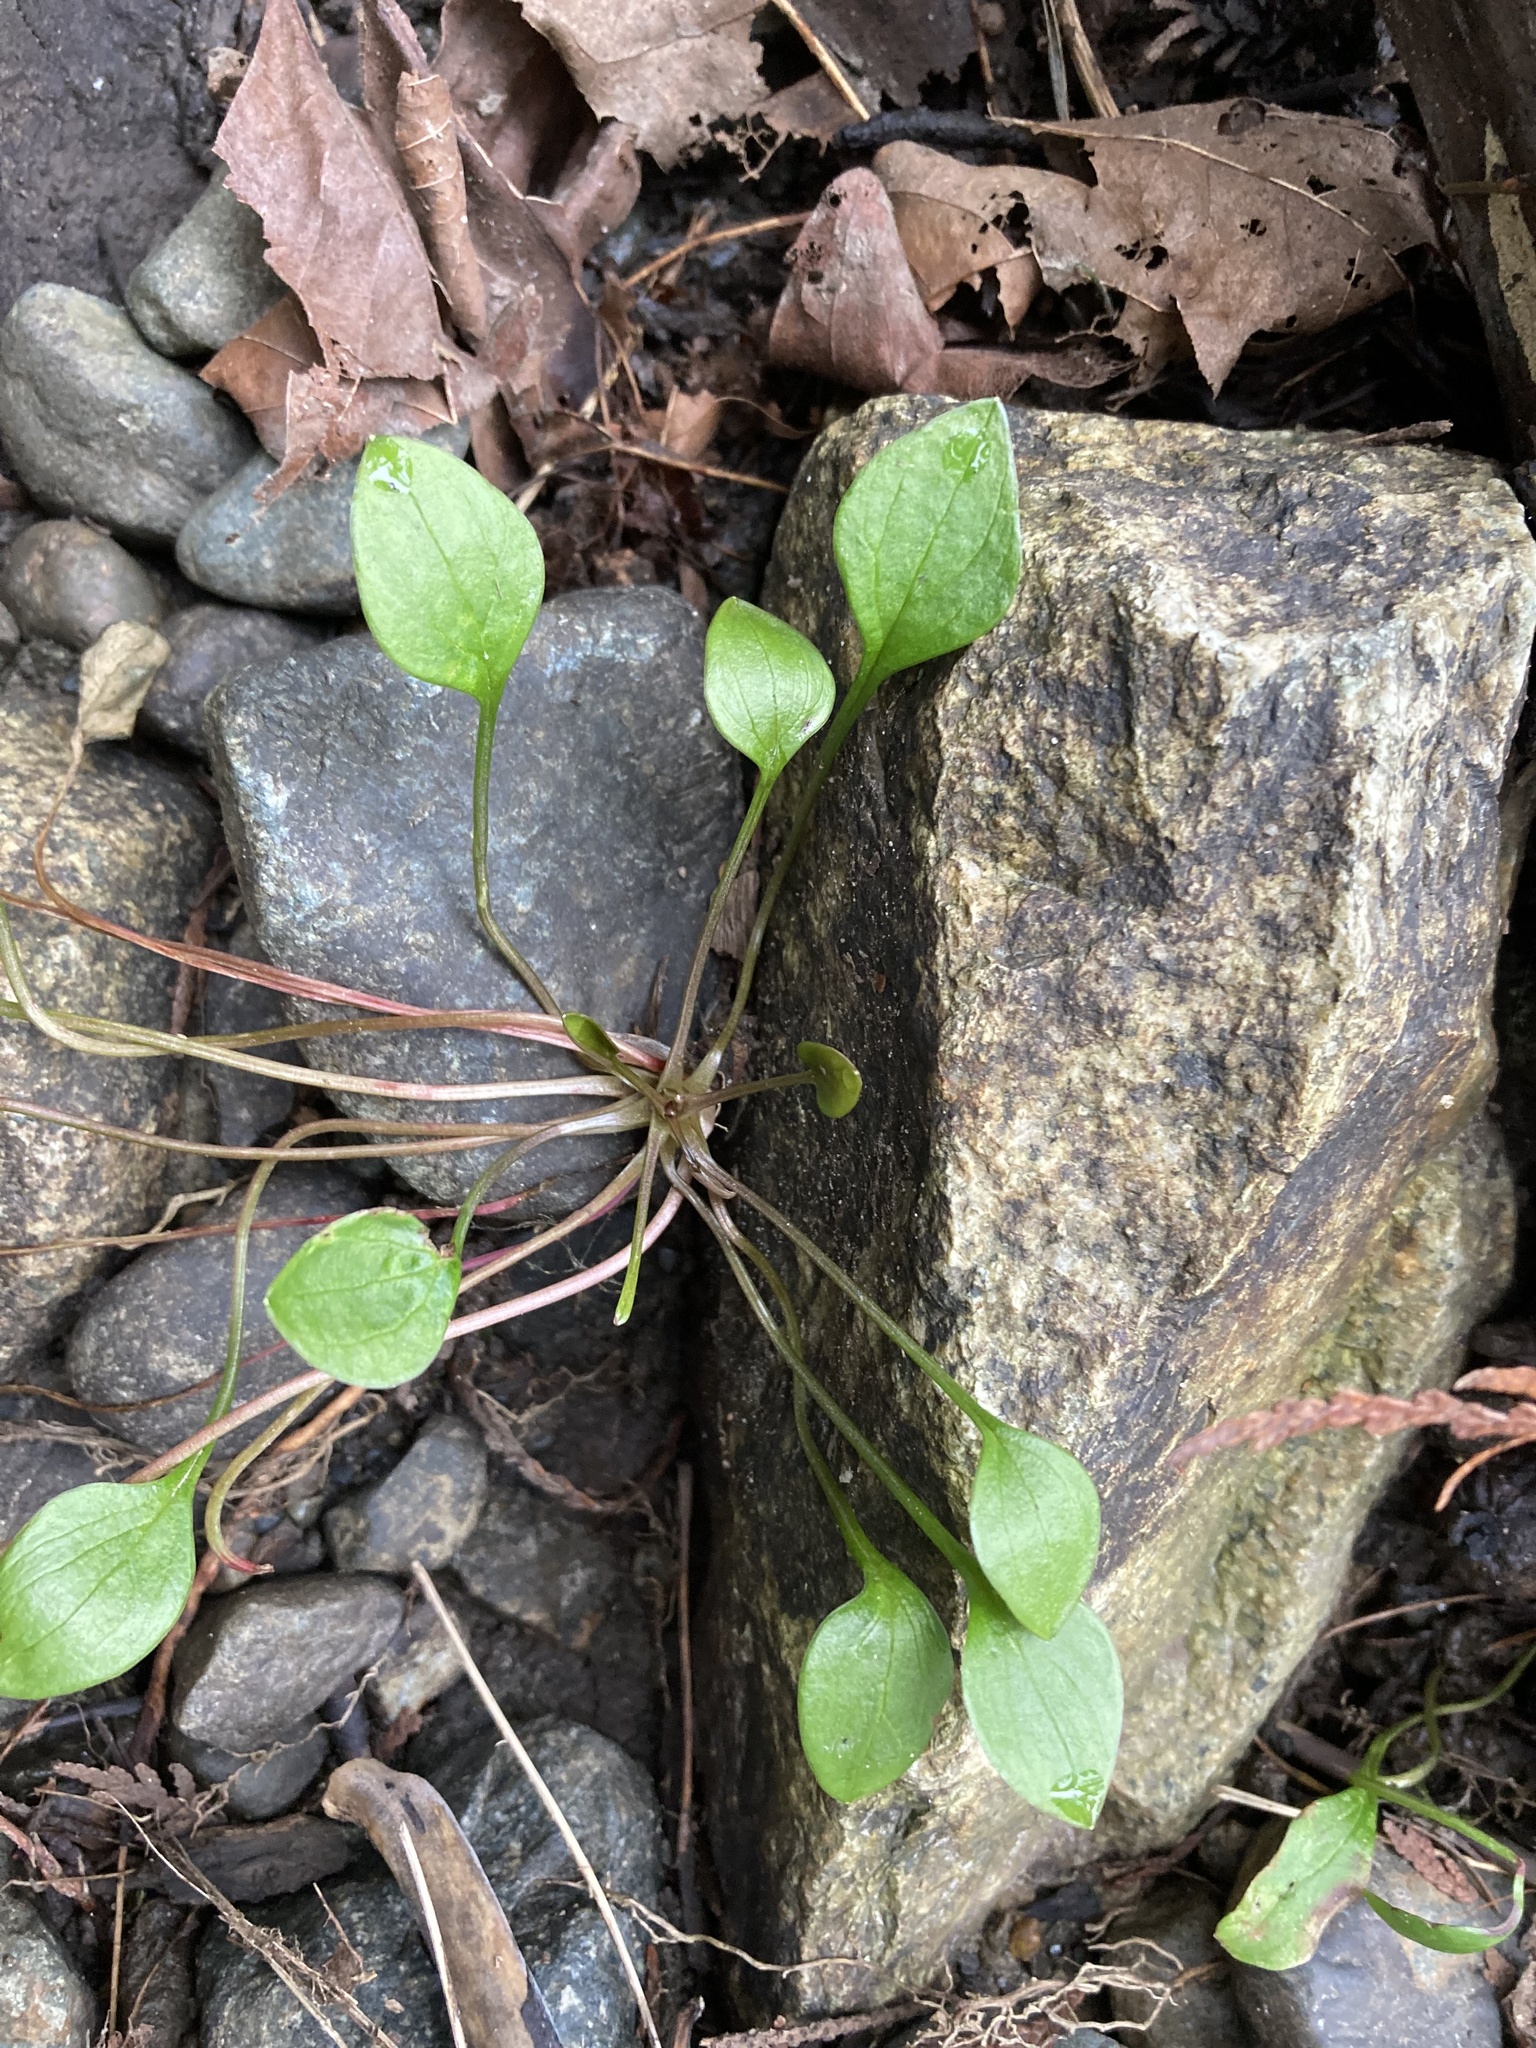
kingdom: Plantae
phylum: Tracheophyta
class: Magnoliopsida
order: Caryophyllales
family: Montiaceae
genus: Claytonia
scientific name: Claytonia sibirica
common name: Pink purslane
